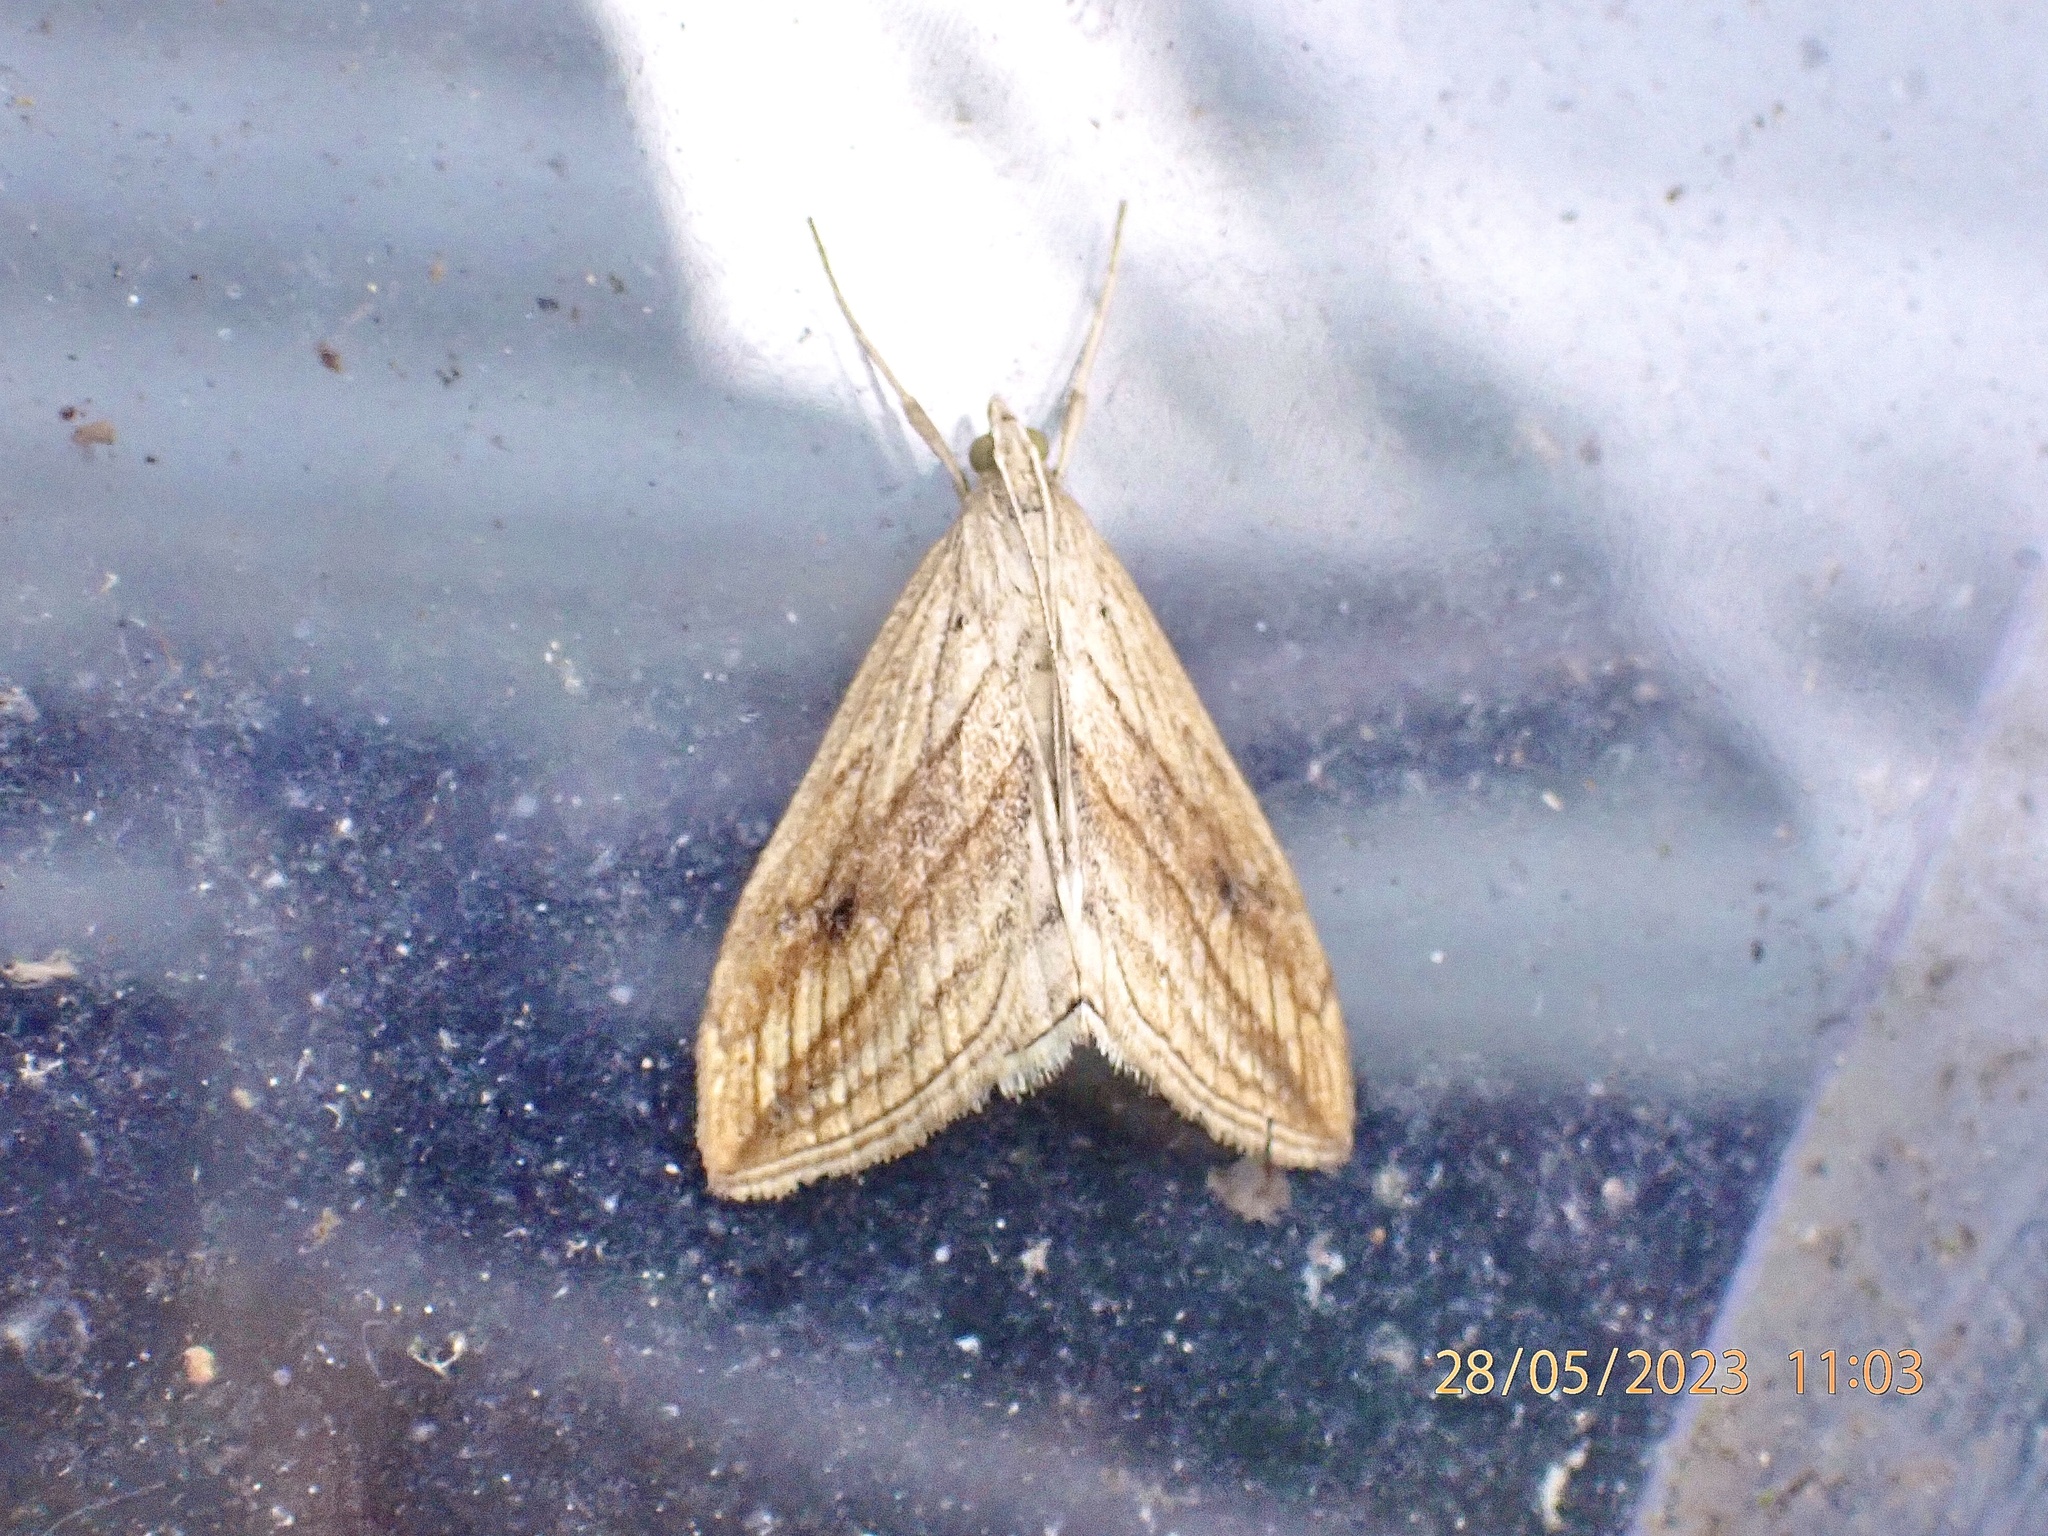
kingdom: Animalia
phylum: Arthropoda
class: Insecta
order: Lepidoptera
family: Crambidae
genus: Evergestis
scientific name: Evergestis forficalis
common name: Garden pebble
